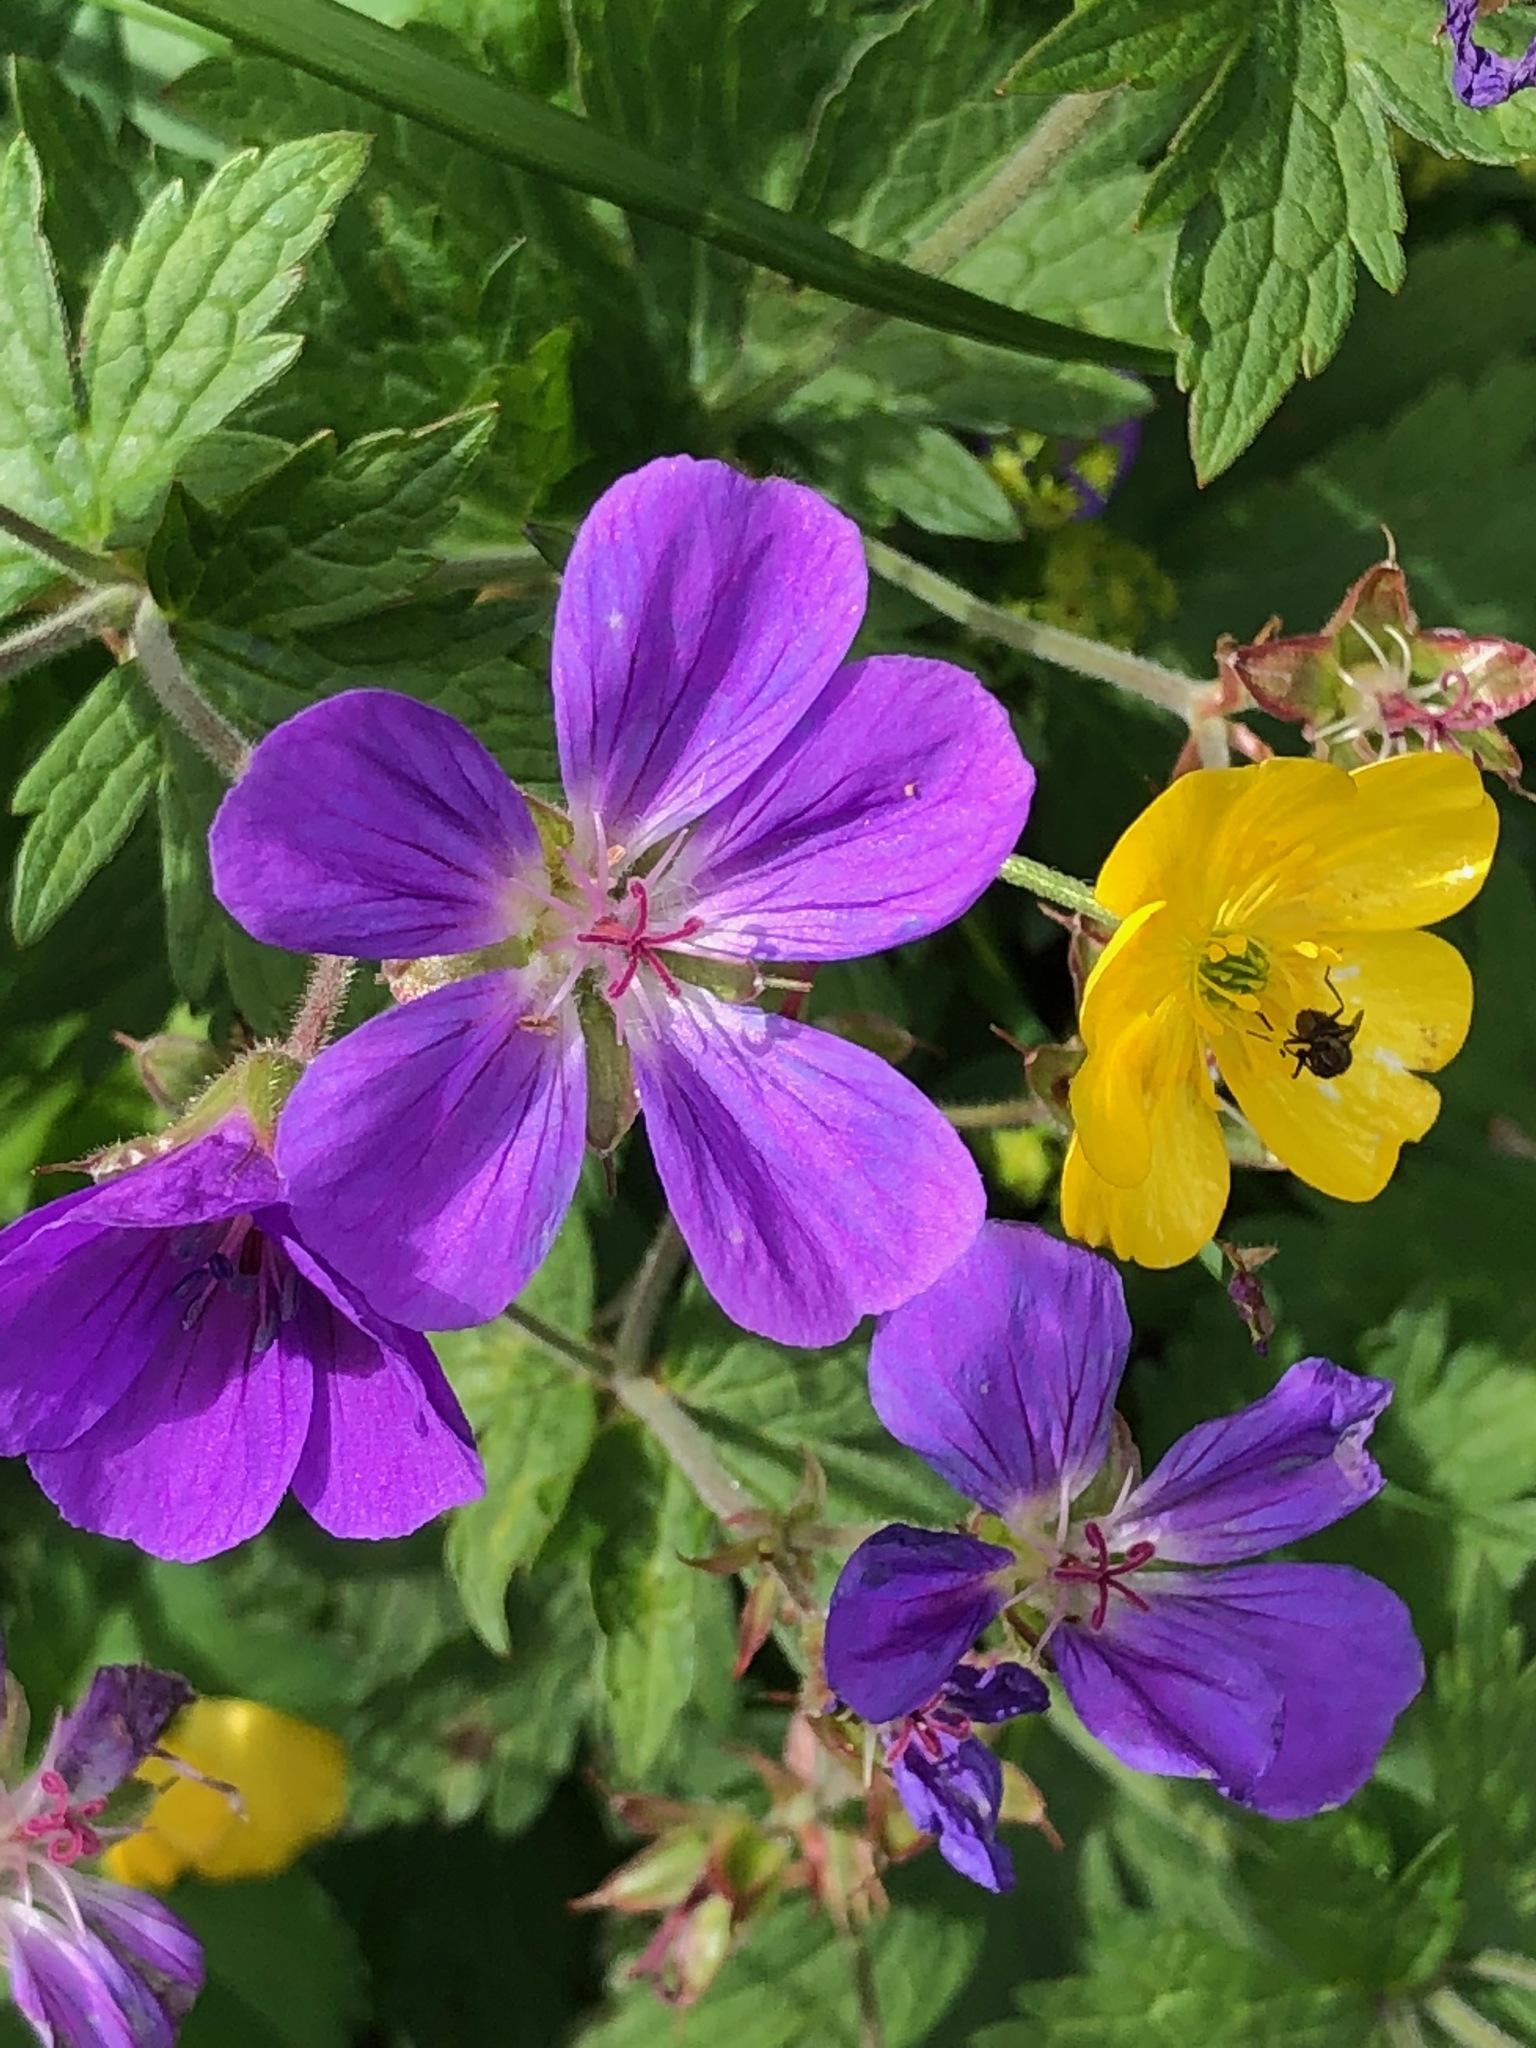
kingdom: Plantae
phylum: Tracheophyta
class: Magnoliopsida
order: Geraniales
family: Geraniaceae
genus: Geranium
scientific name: Geranium sylvaticum
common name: Wood crane's-bill
